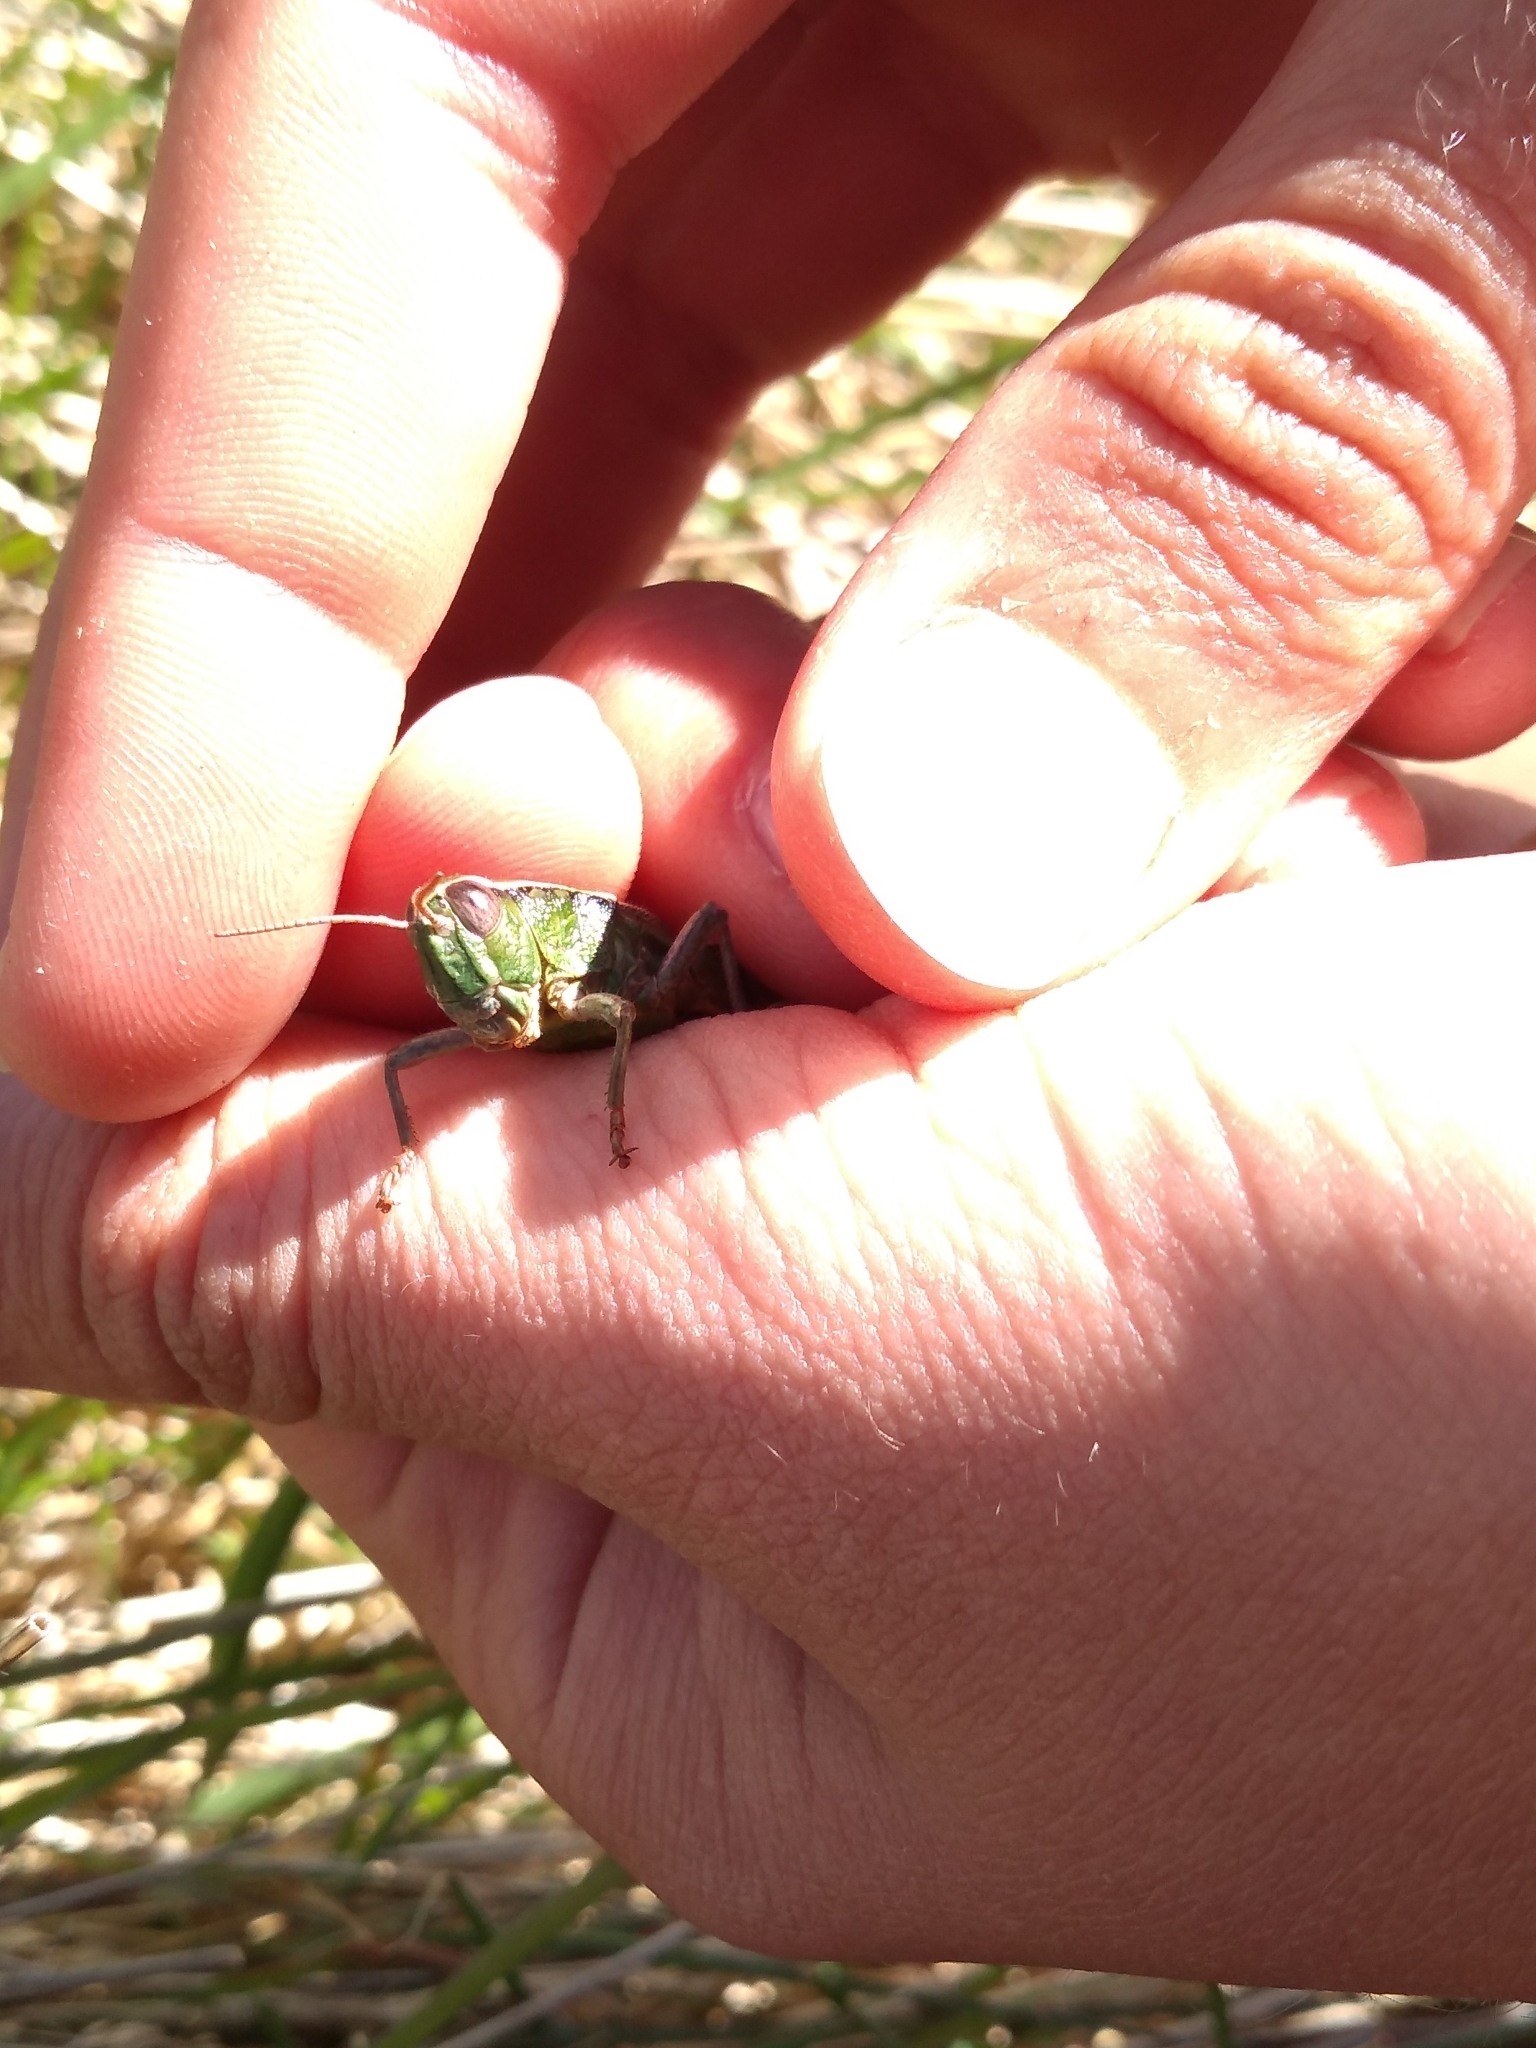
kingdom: Animalia
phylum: Arthropoda
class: Insecta
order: Orthoptera
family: Acrididae
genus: Sigaus
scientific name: Sigaus
